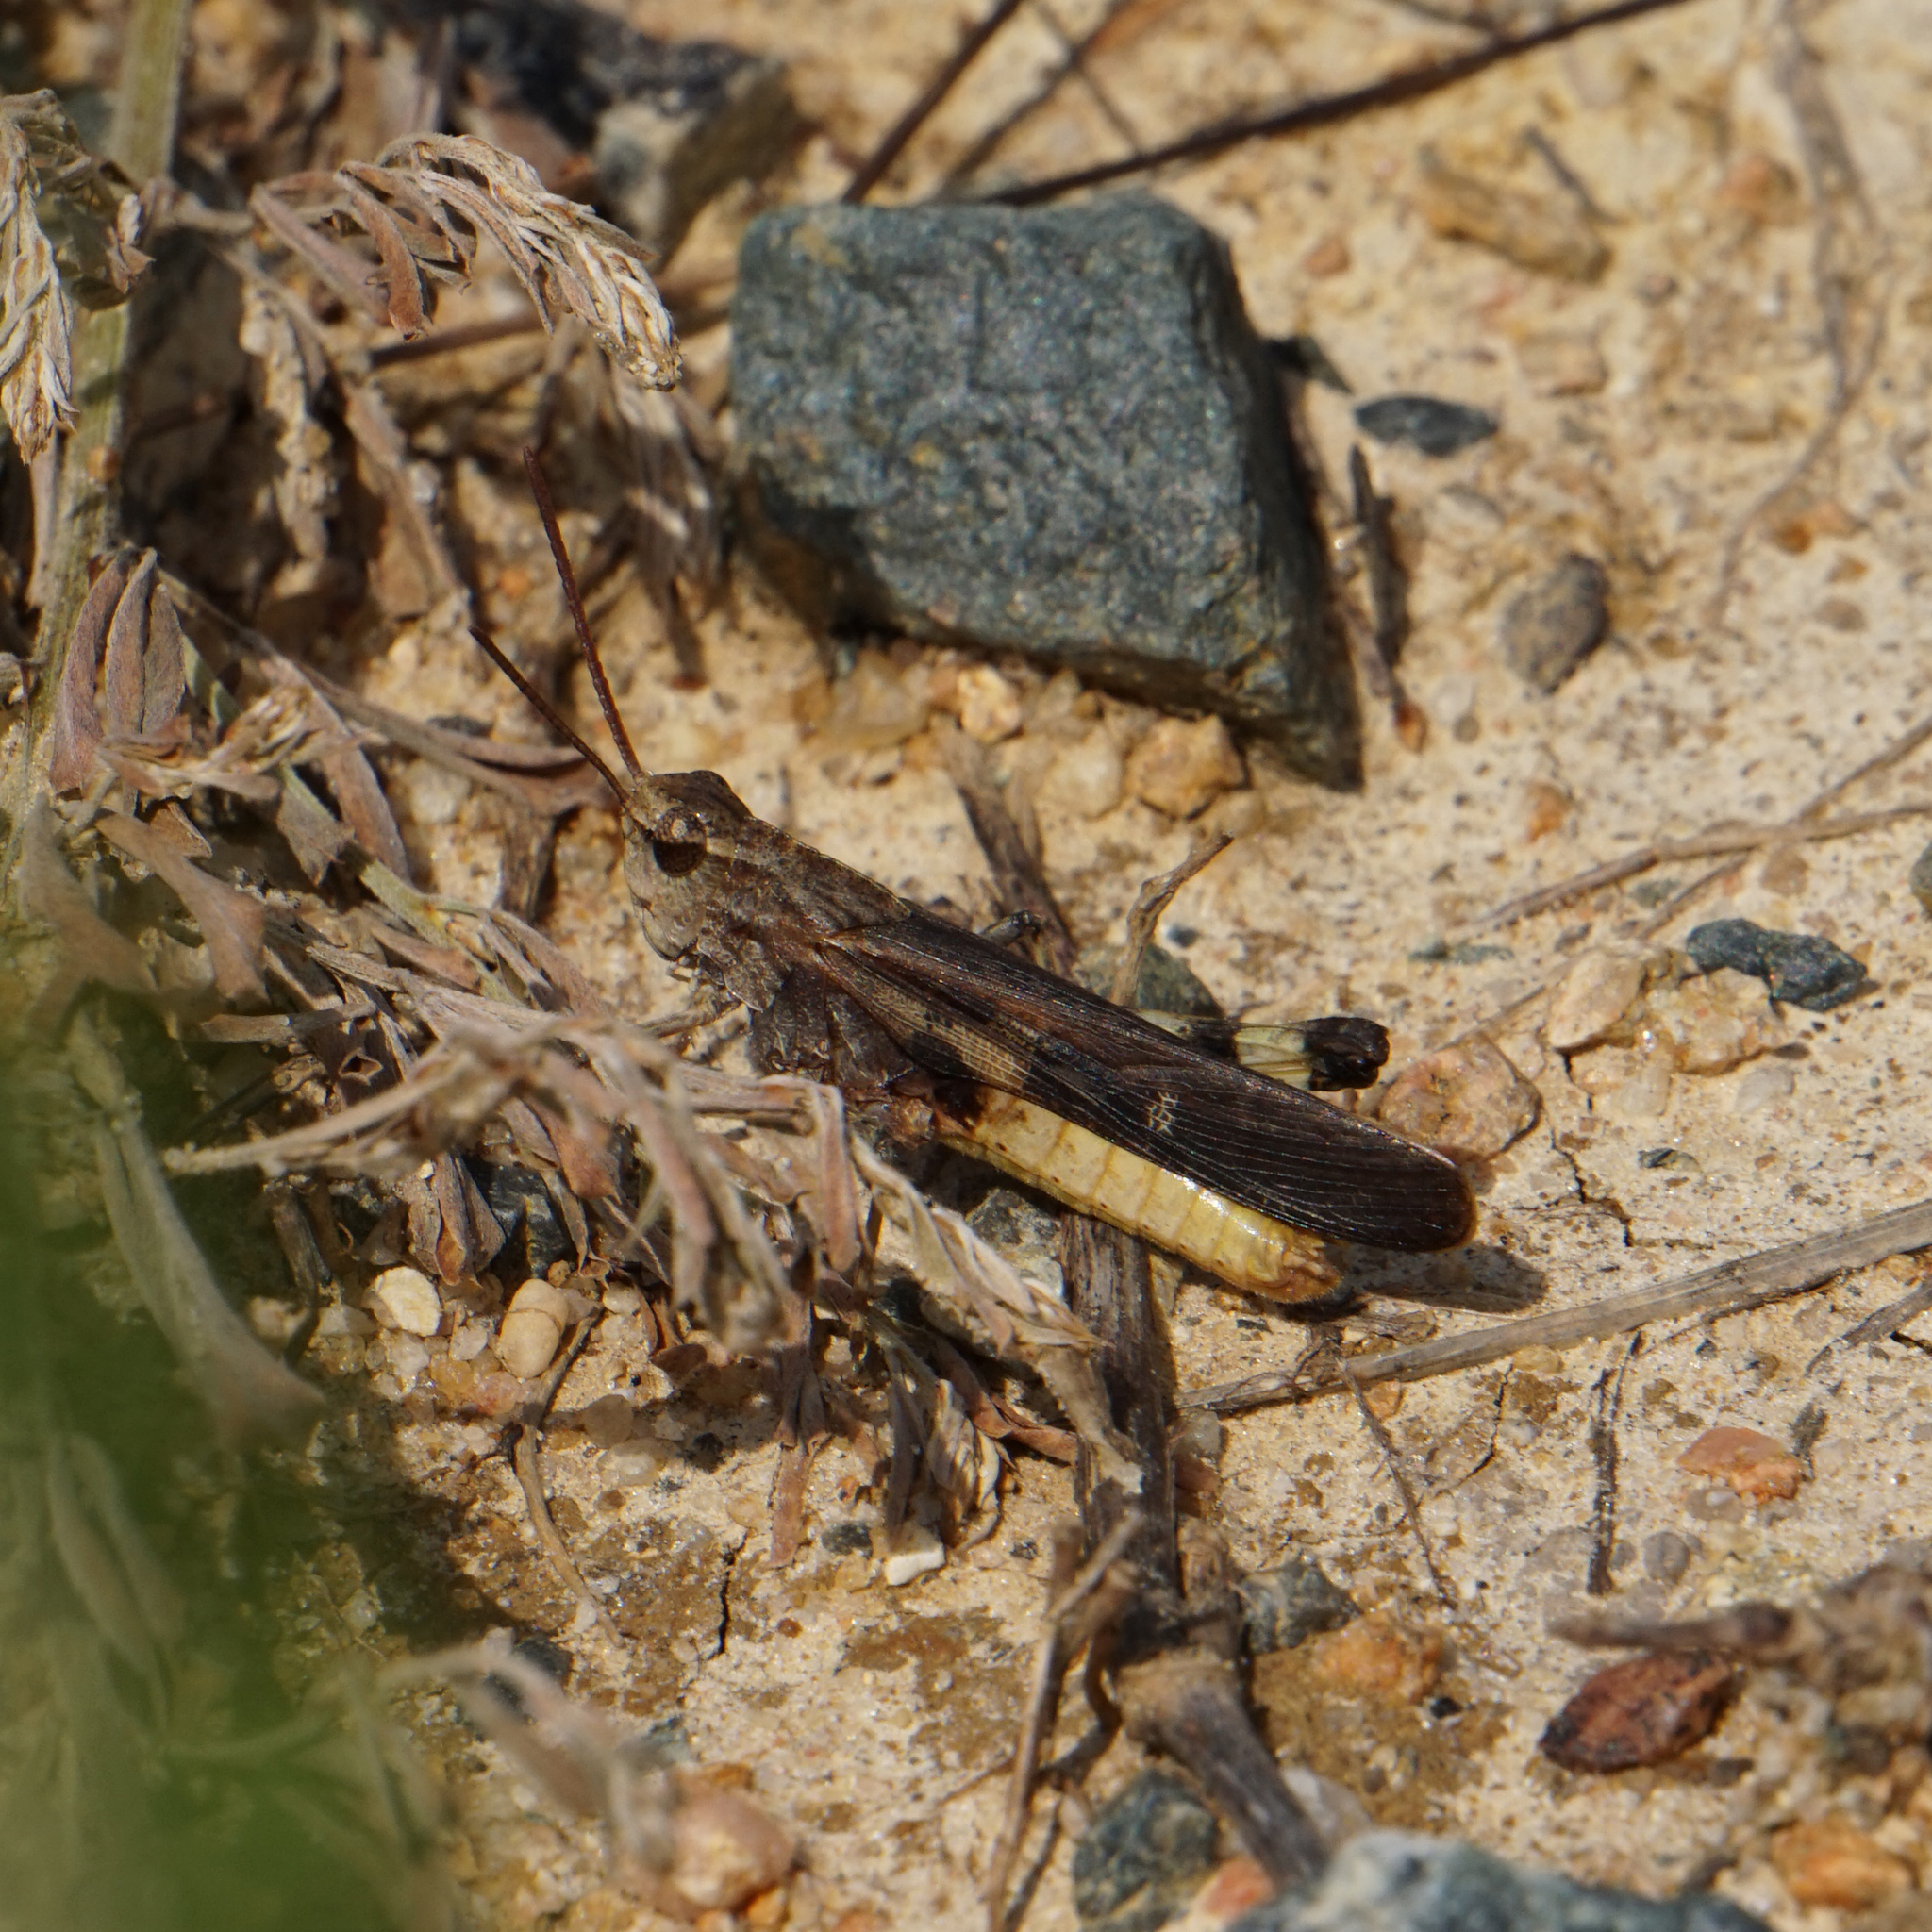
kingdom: Animalia
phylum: Arthropoda
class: Insecta
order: Orthoptera
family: Acrididae
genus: Chortophaga
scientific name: Chortophaga viridifasciata
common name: Green-striped grasshopper
